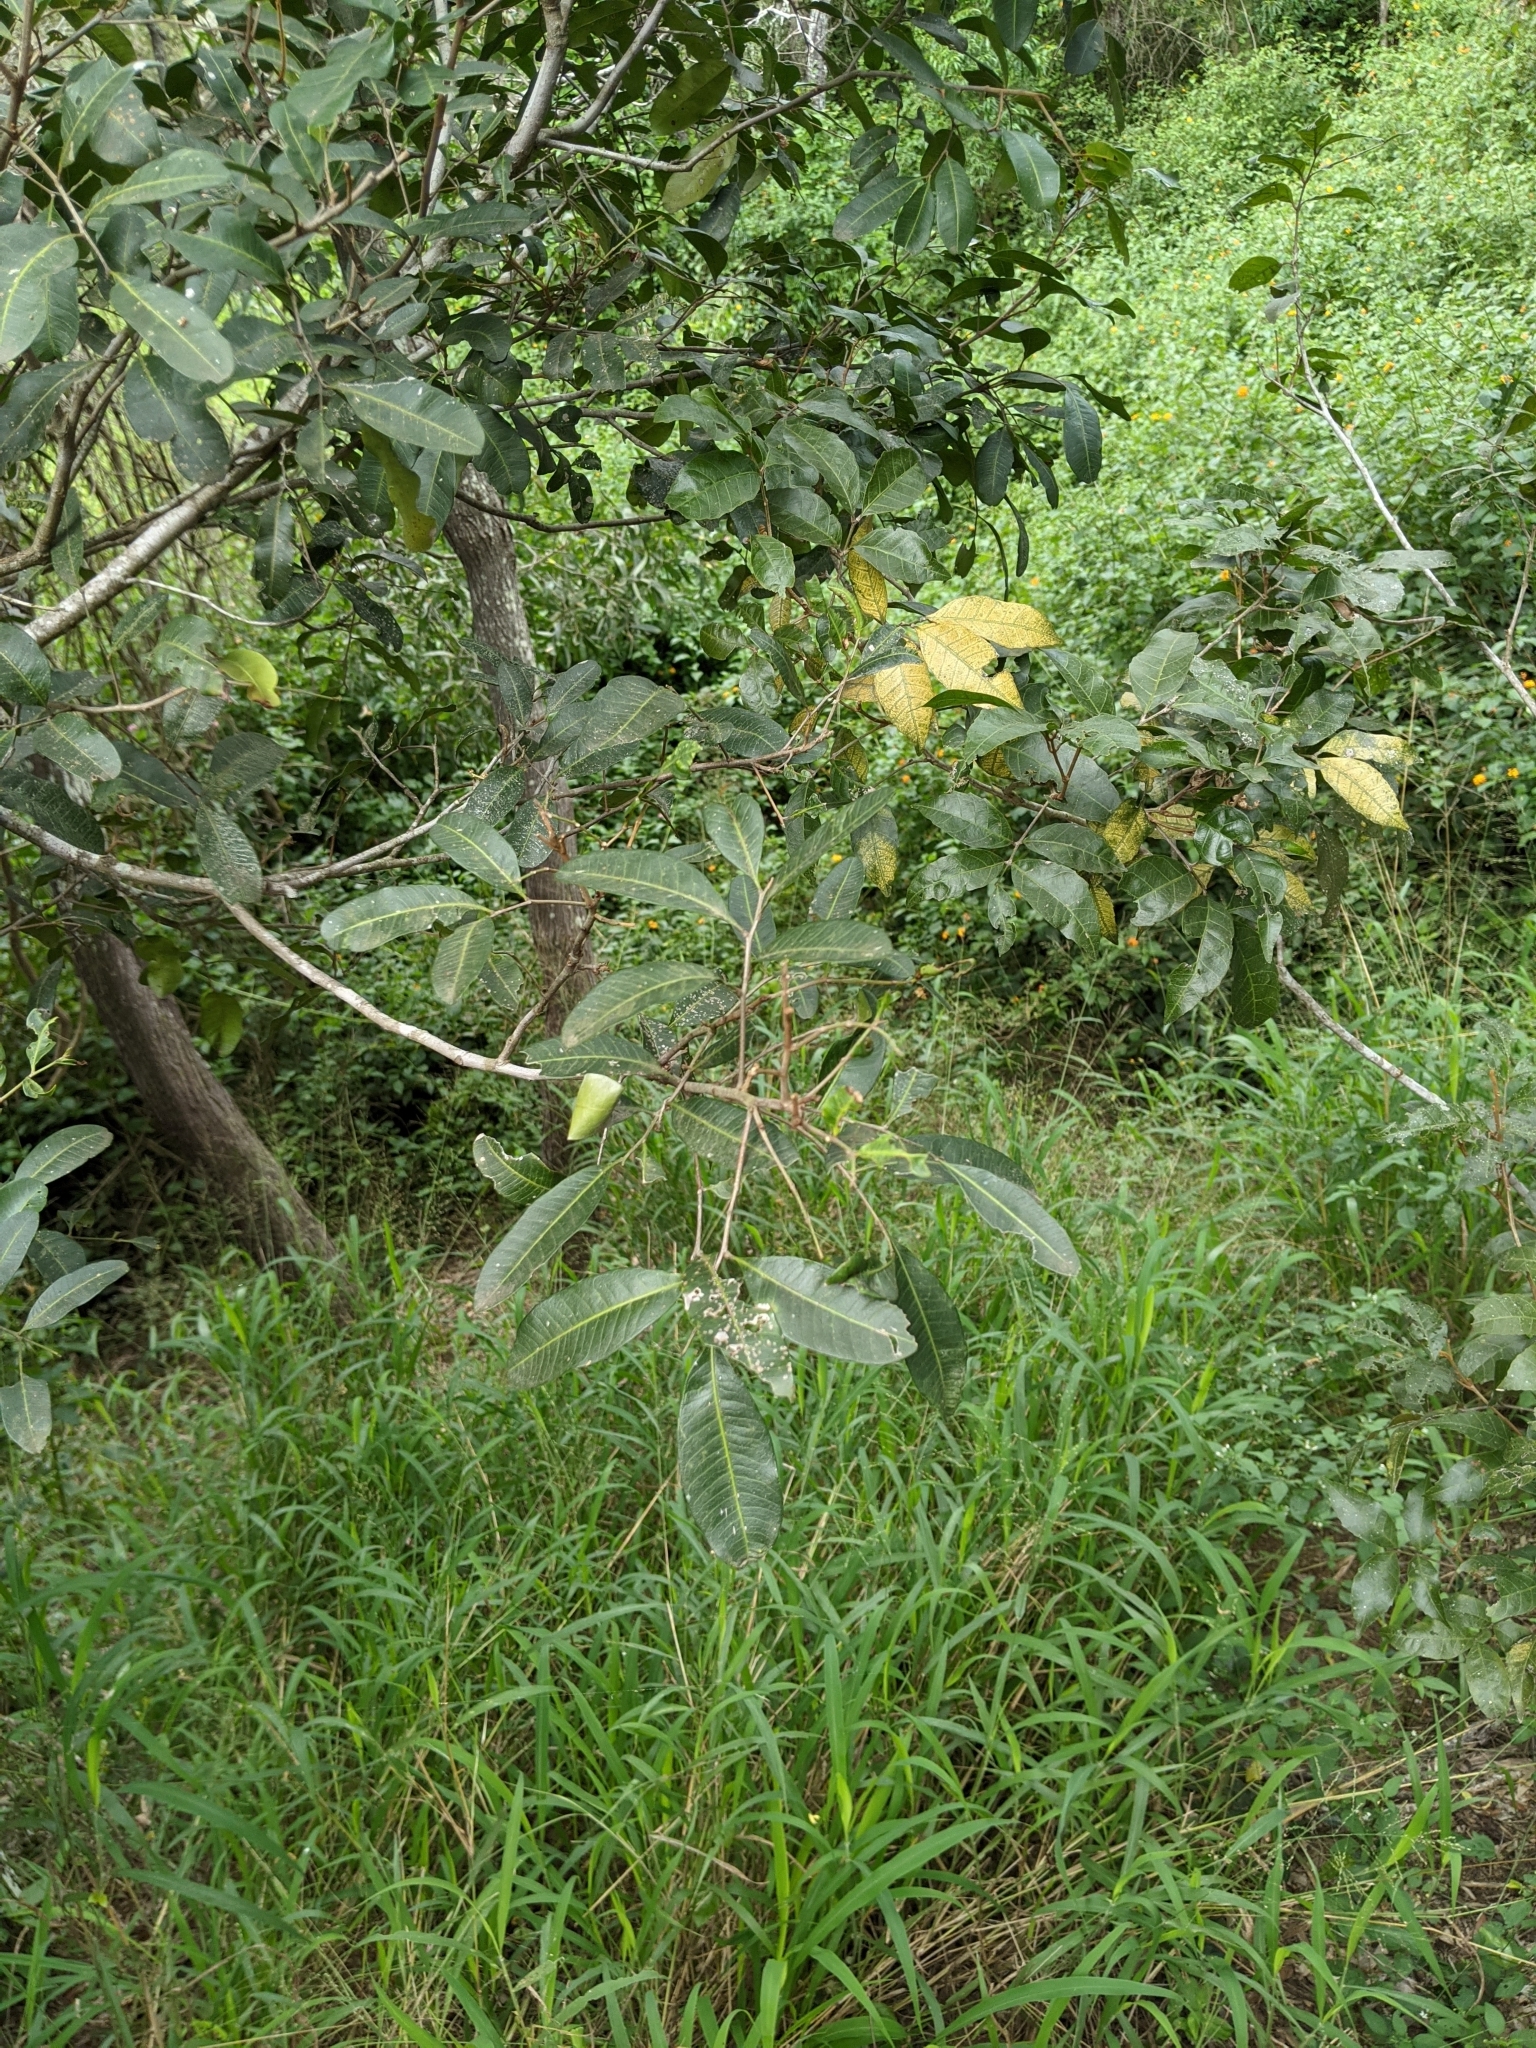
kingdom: Plantae
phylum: Tracheophyta
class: Magnoliopsida
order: Sapindales
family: Sapindaceae
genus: Cupaniopsis
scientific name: Cupaniopsis parvifolia
